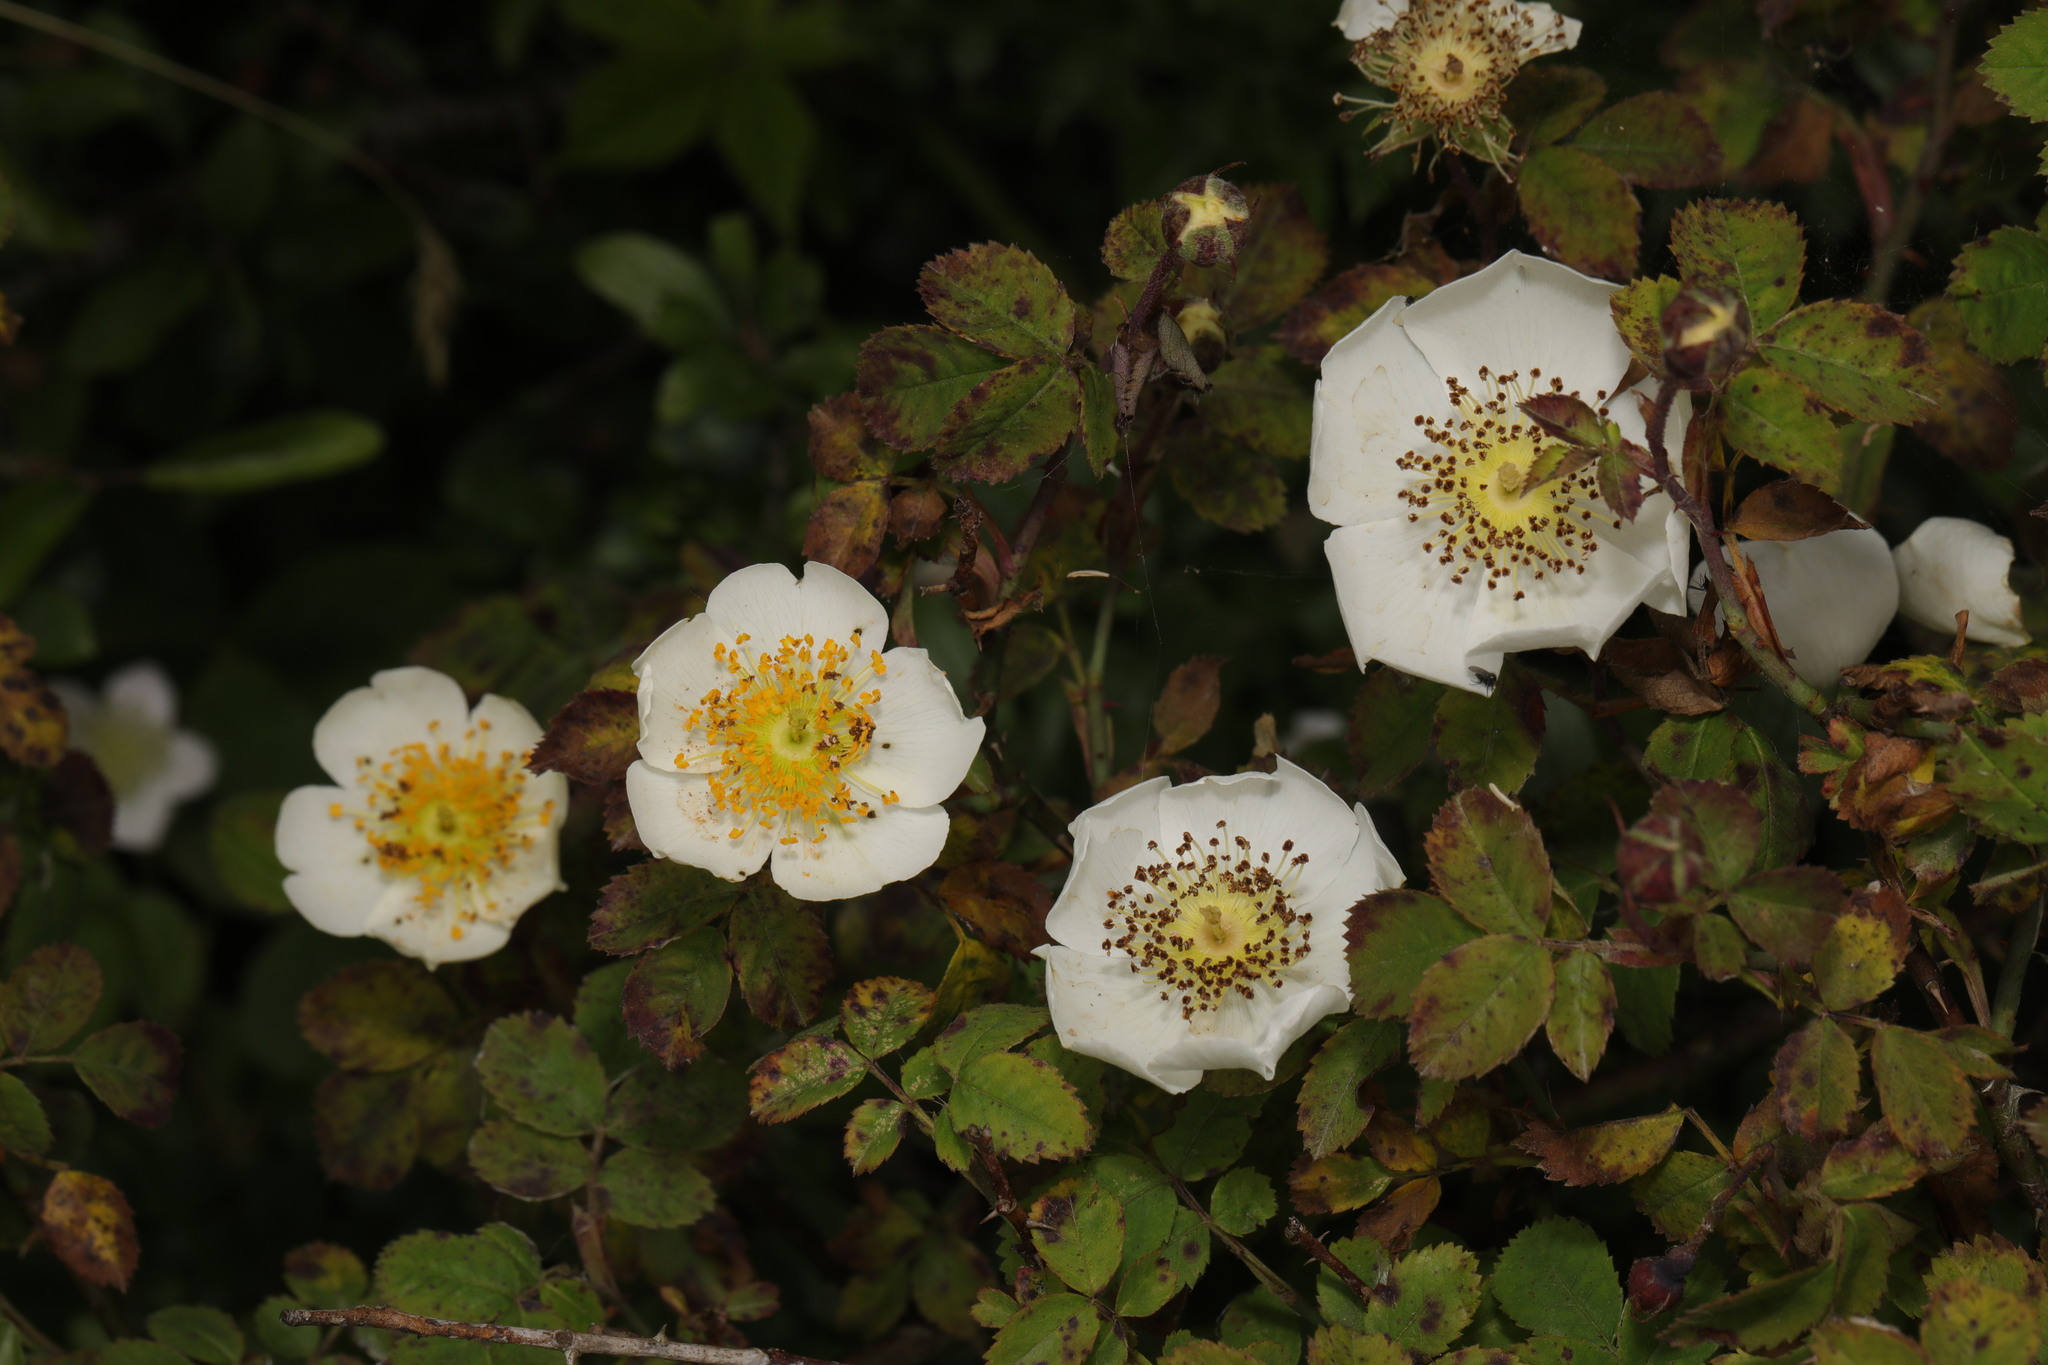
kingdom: Plantae
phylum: Tracheophyta
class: Magnoliopsida
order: Rosales
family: Rosaceae
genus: Rosa
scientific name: Rosa arvensis
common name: Field rose
